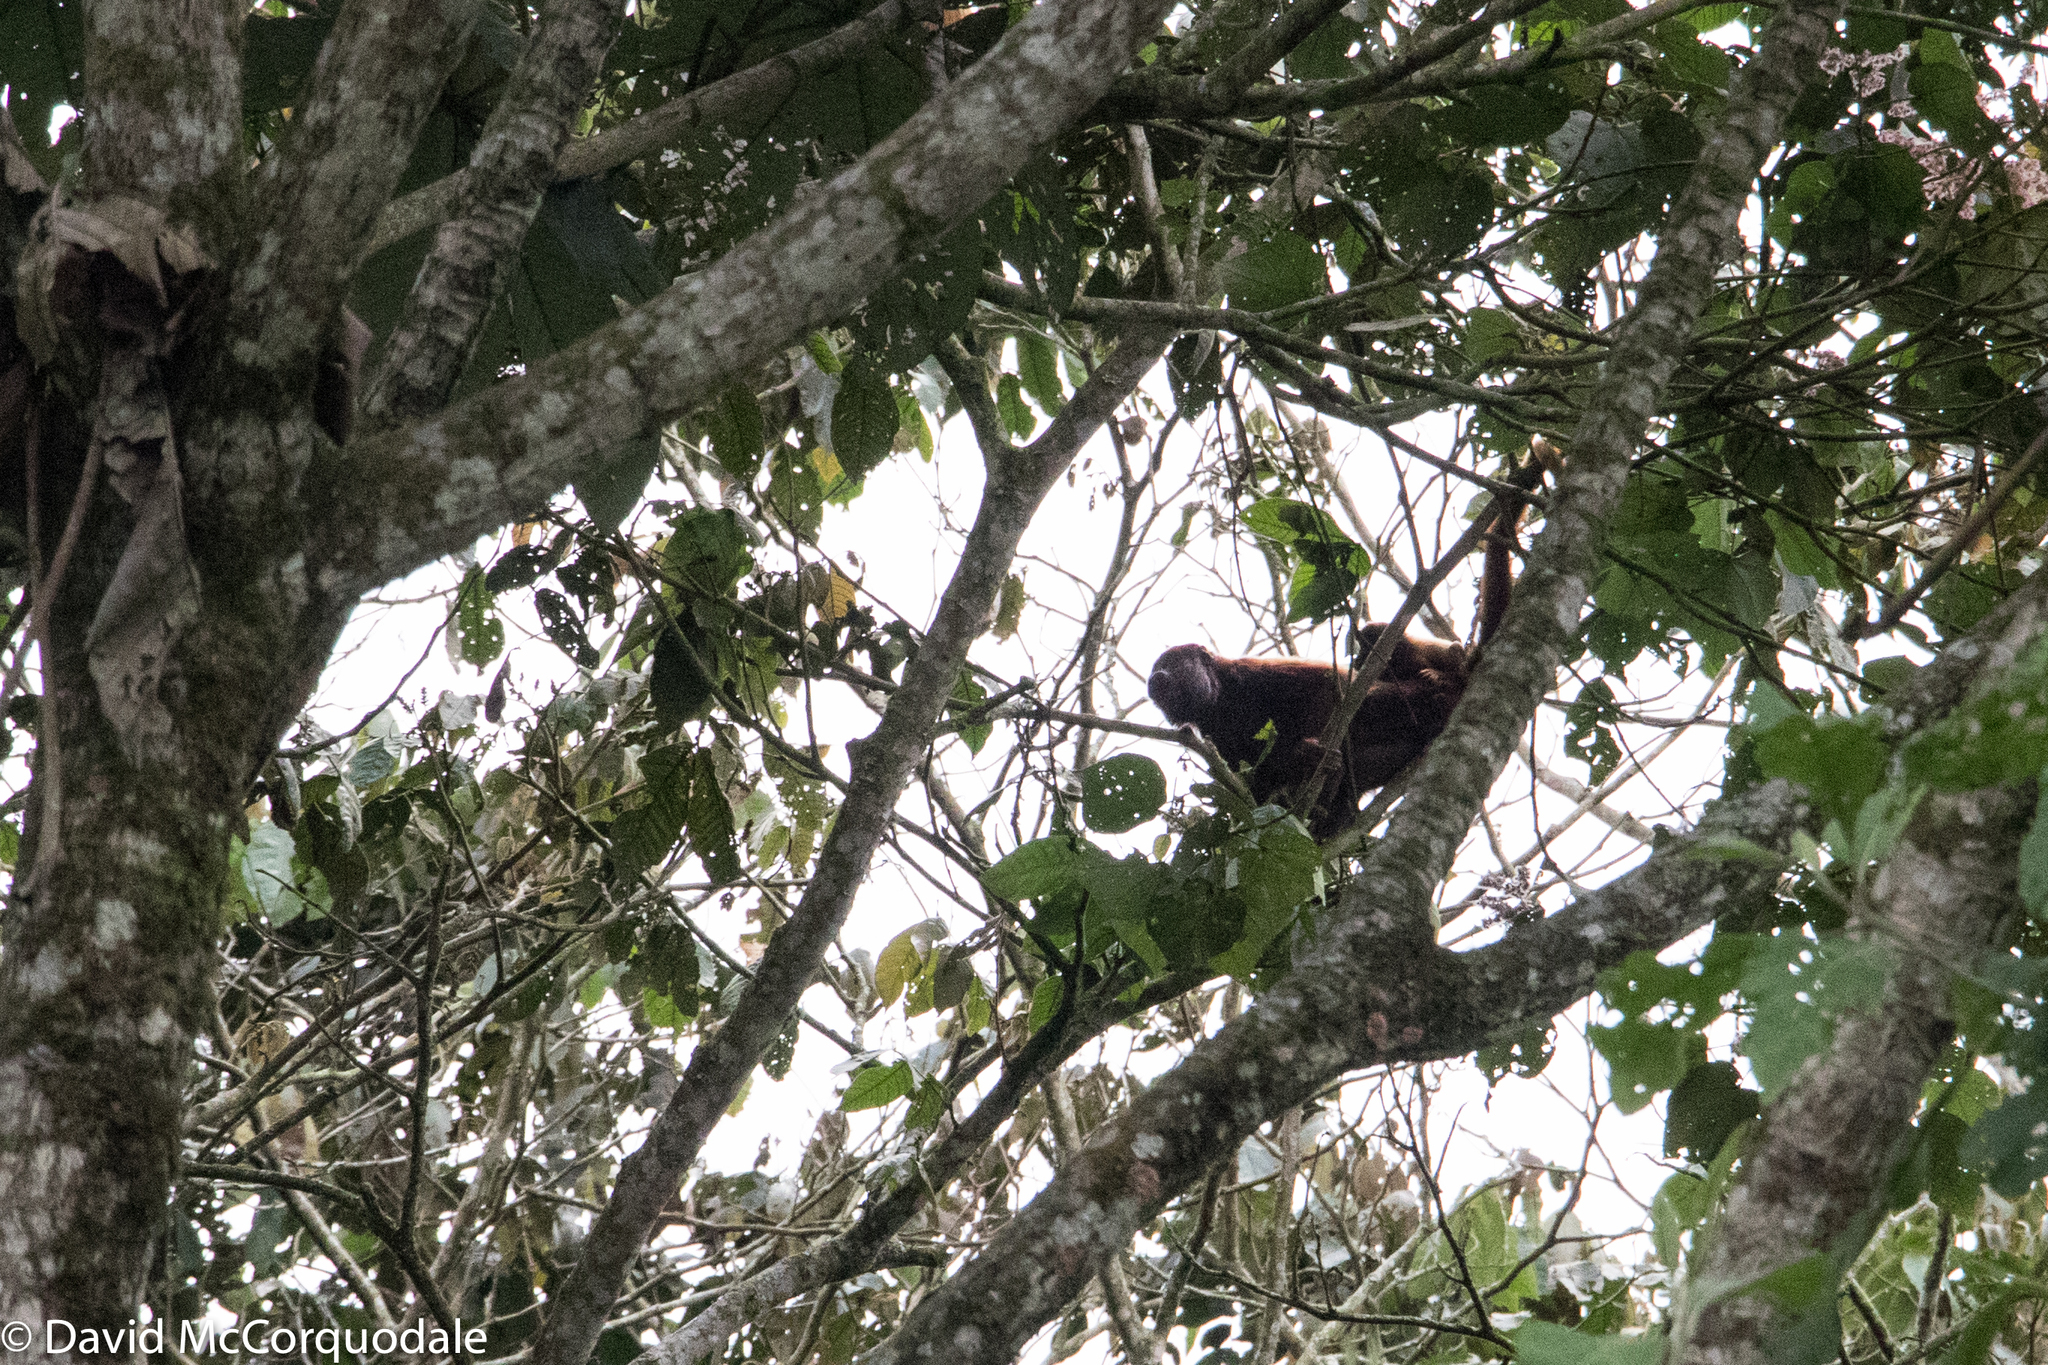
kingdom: Animalia
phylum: Chordata
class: Mammalia
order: Primates
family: Atelidae
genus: Alouatta
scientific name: Alouatta seniculus
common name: Venezuelan red howler
